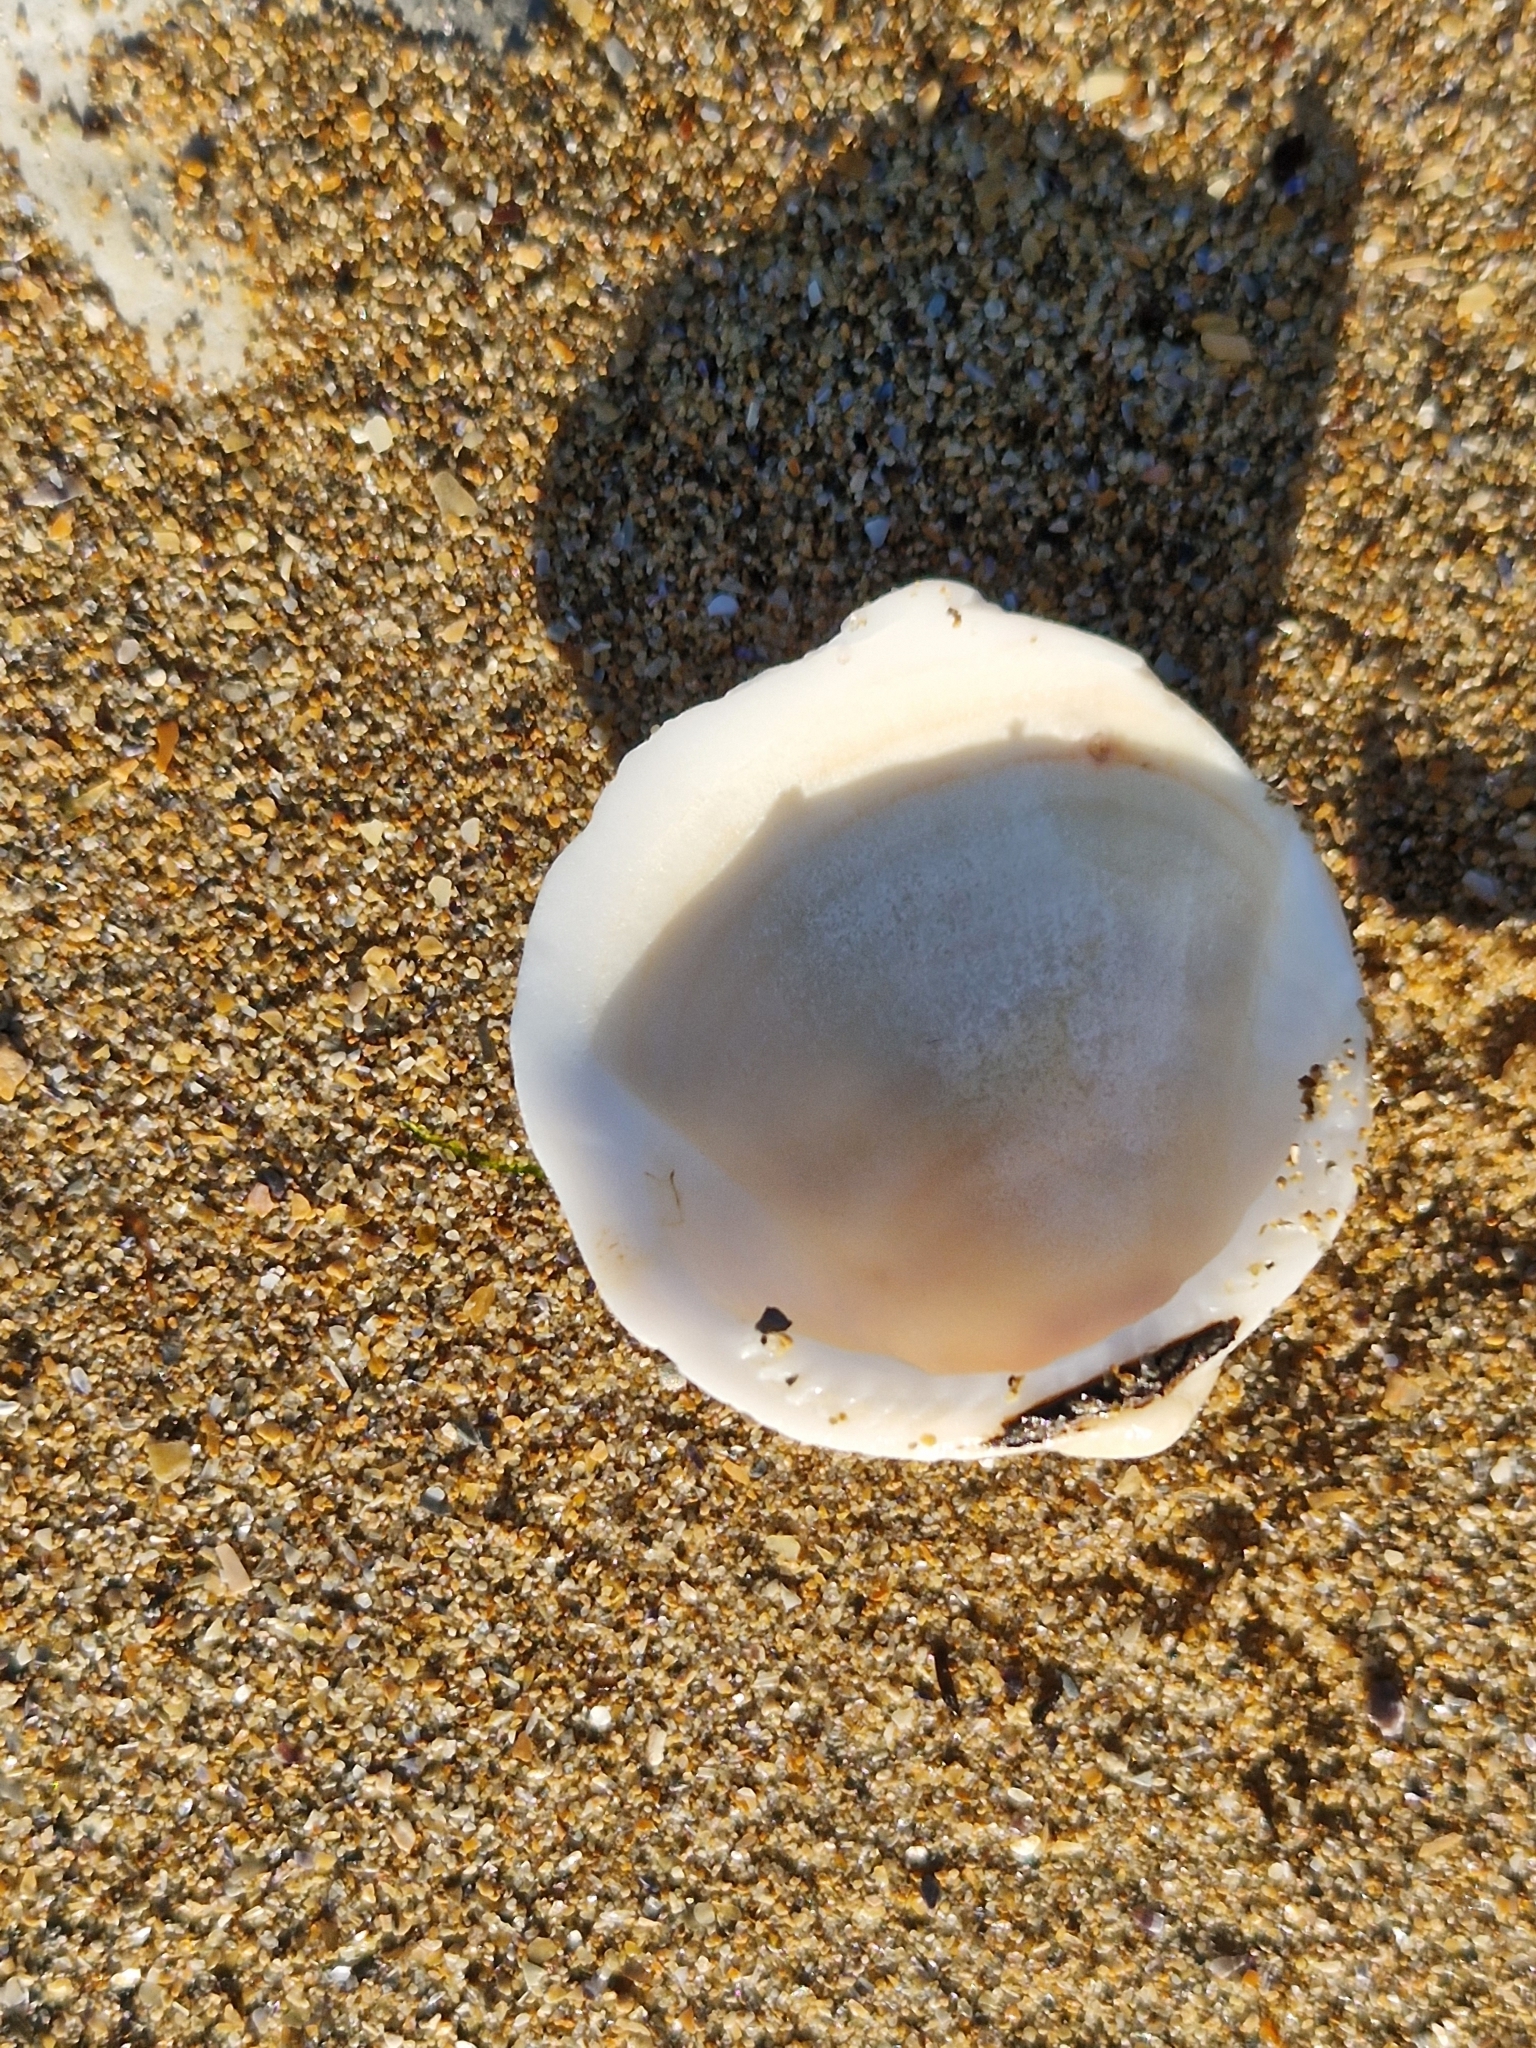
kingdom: Animalia
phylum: Mollusca
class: Bivalvia
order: Arcida
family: Glycymerididae
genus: Glycymeris
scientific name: Glycymeris glycymeris
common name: Dog-cockle
